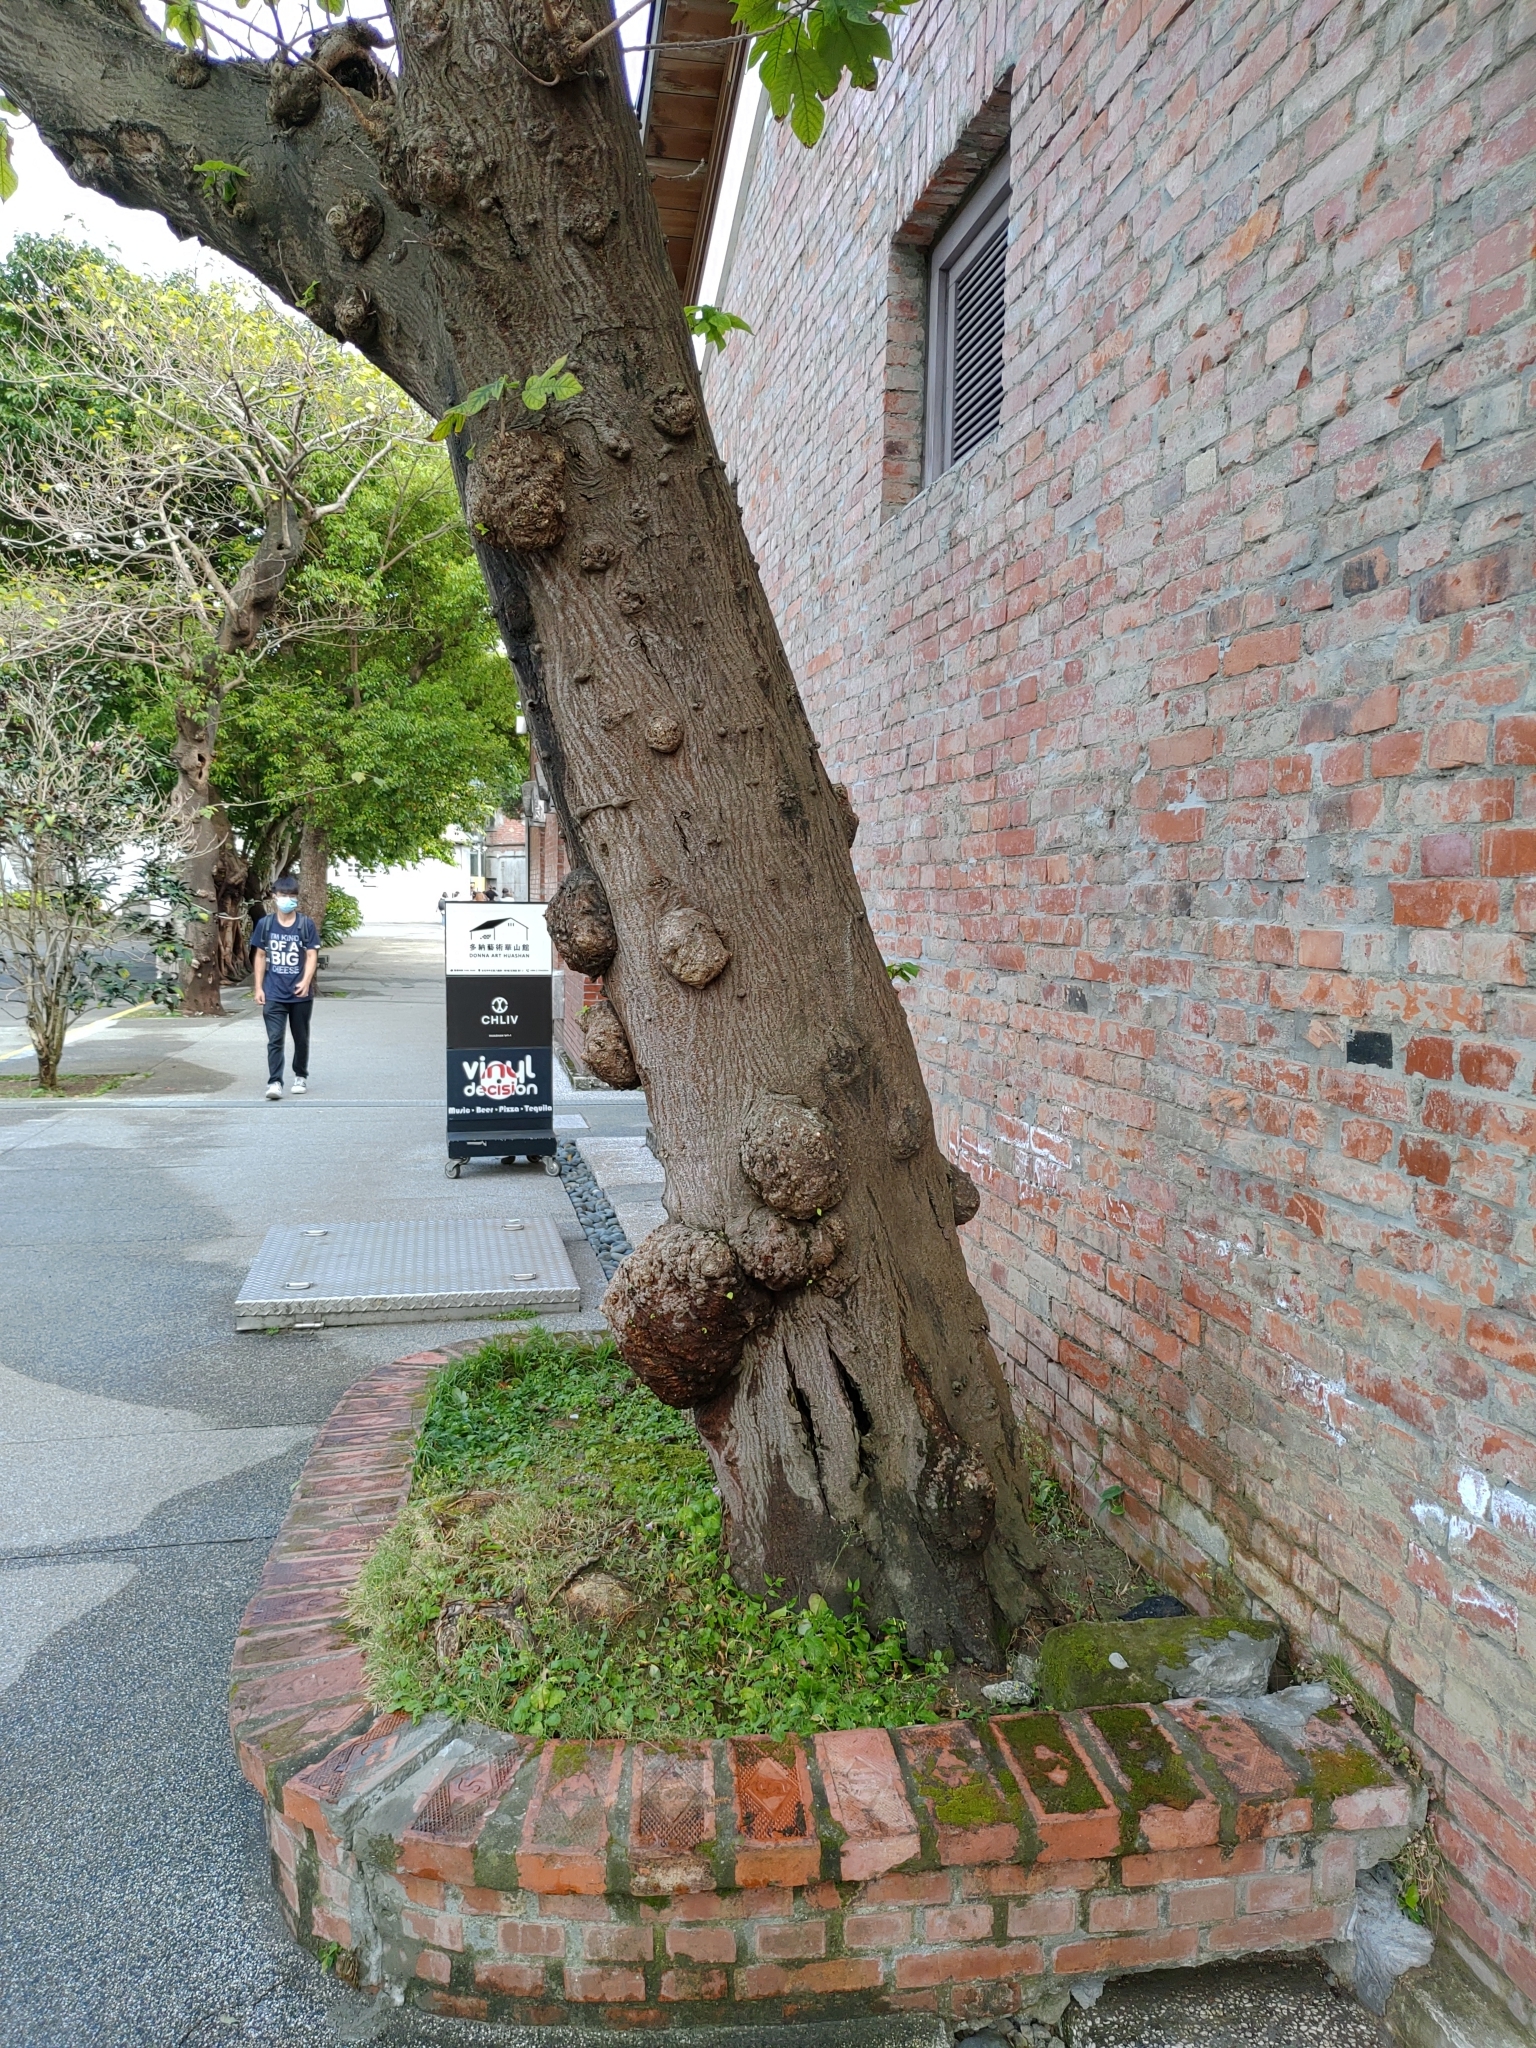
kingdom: Plantae
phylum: Tracheophyta
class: Magnoliopsida
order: Rosales
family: Moraceae
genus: Broussonetia
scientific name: Broussonetia papyrifera
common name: Paper mulberry
